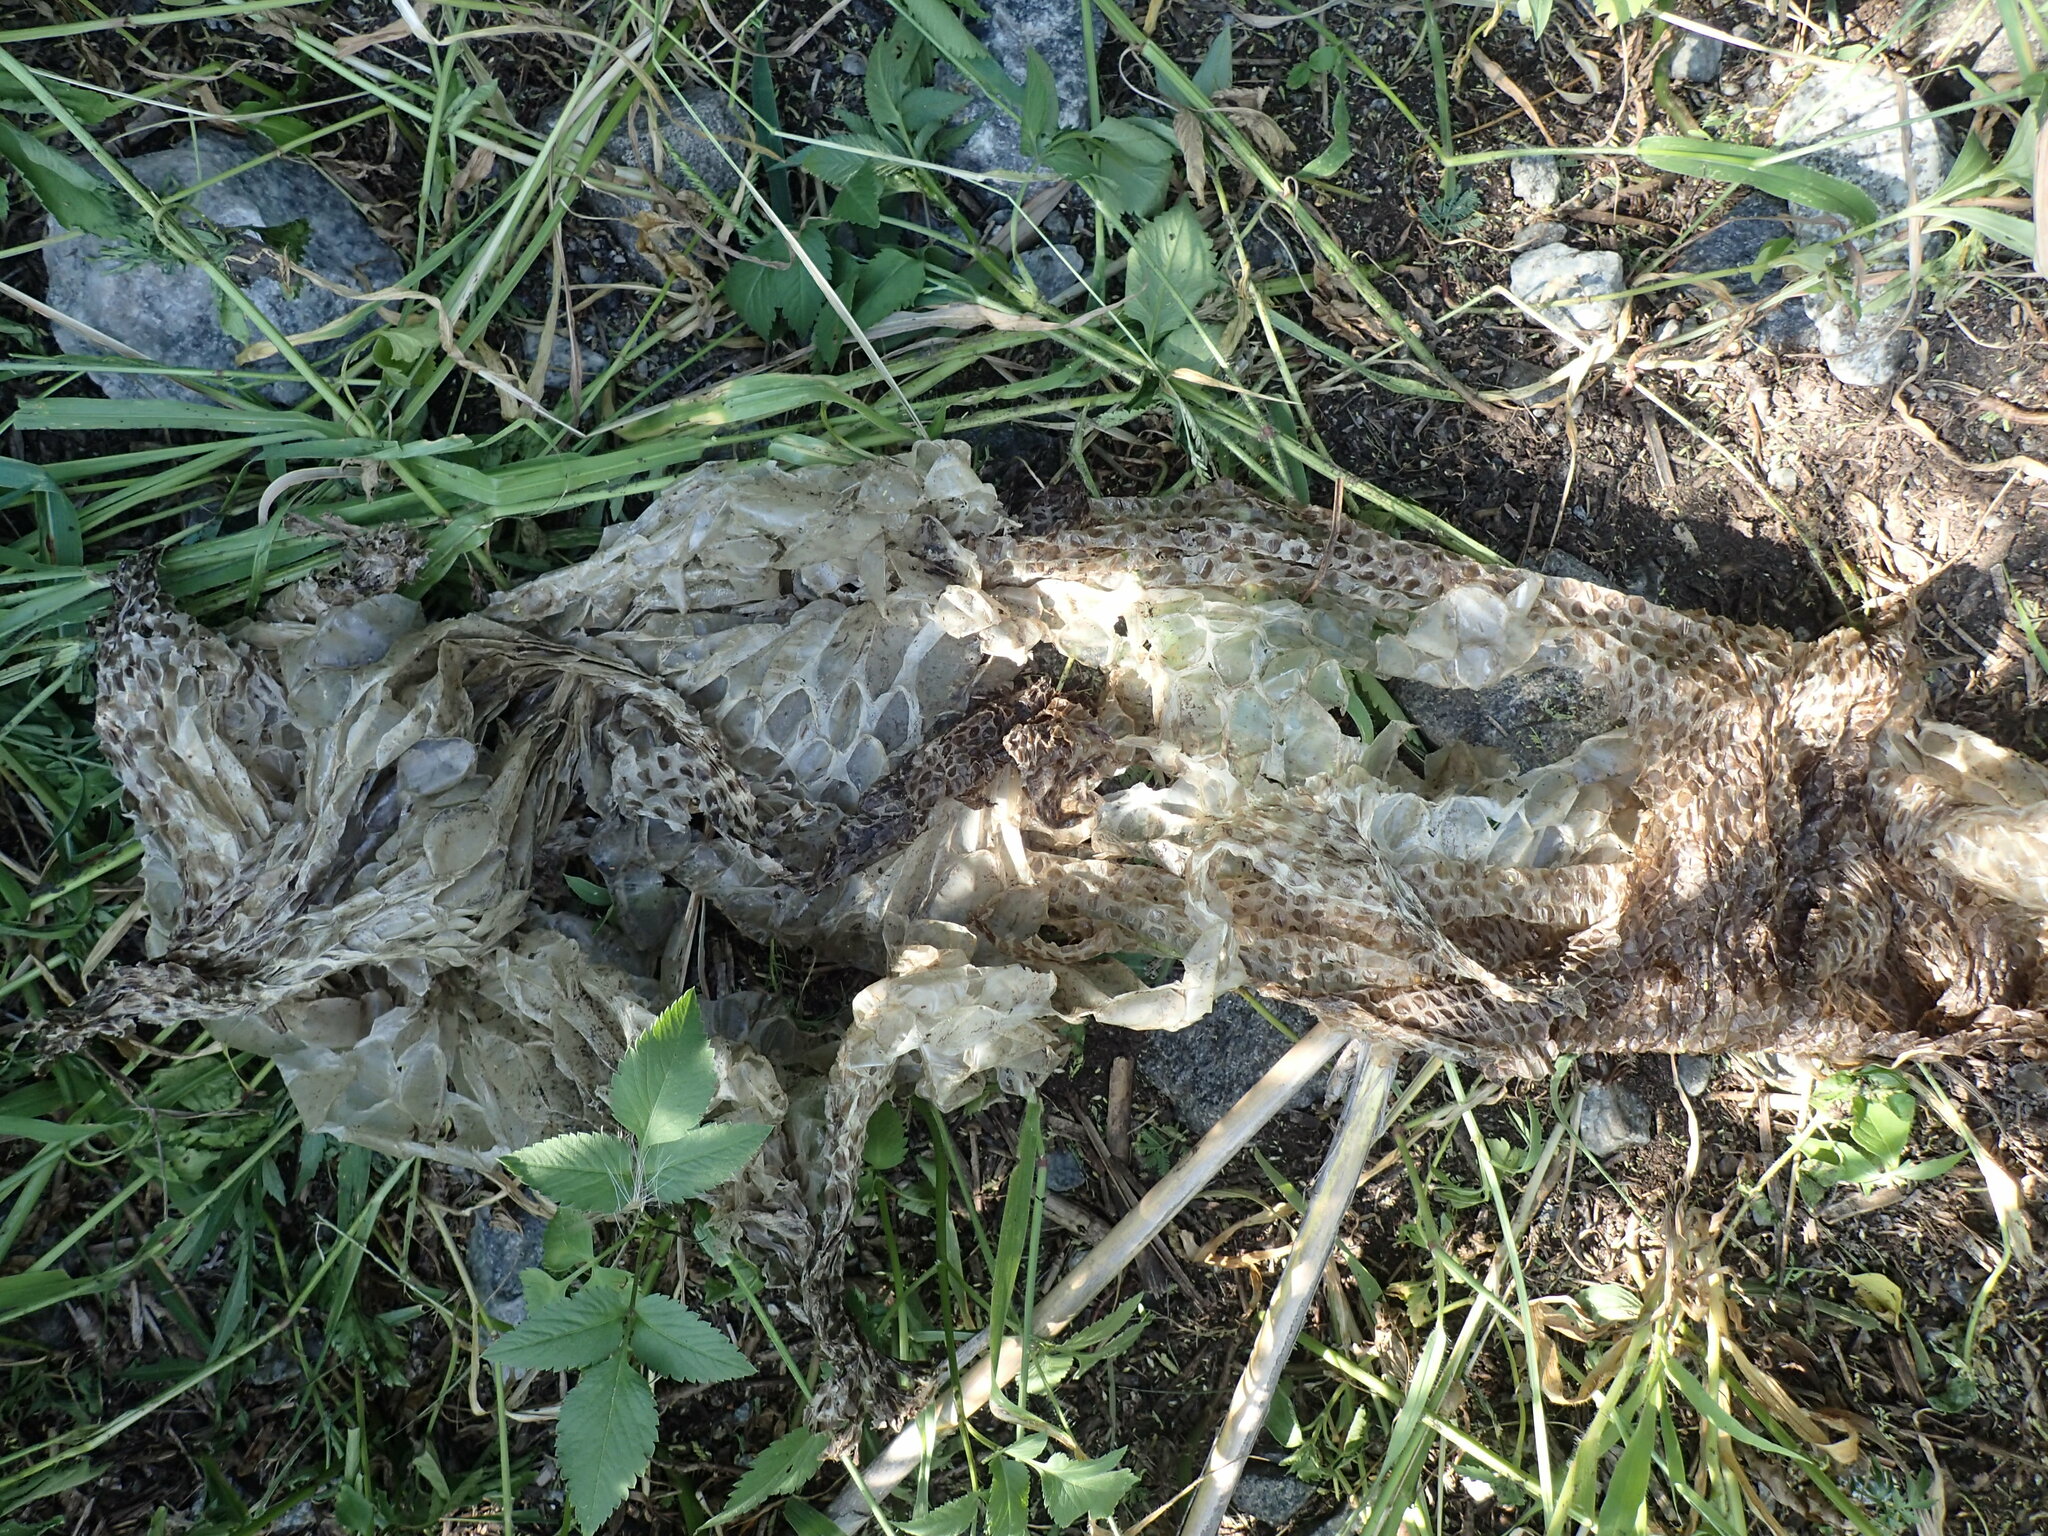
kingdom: Animalia
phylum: Chordata
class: Squamata
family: Pythonidae
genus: Python
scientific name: Python natalensis
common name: Southern african rock python
